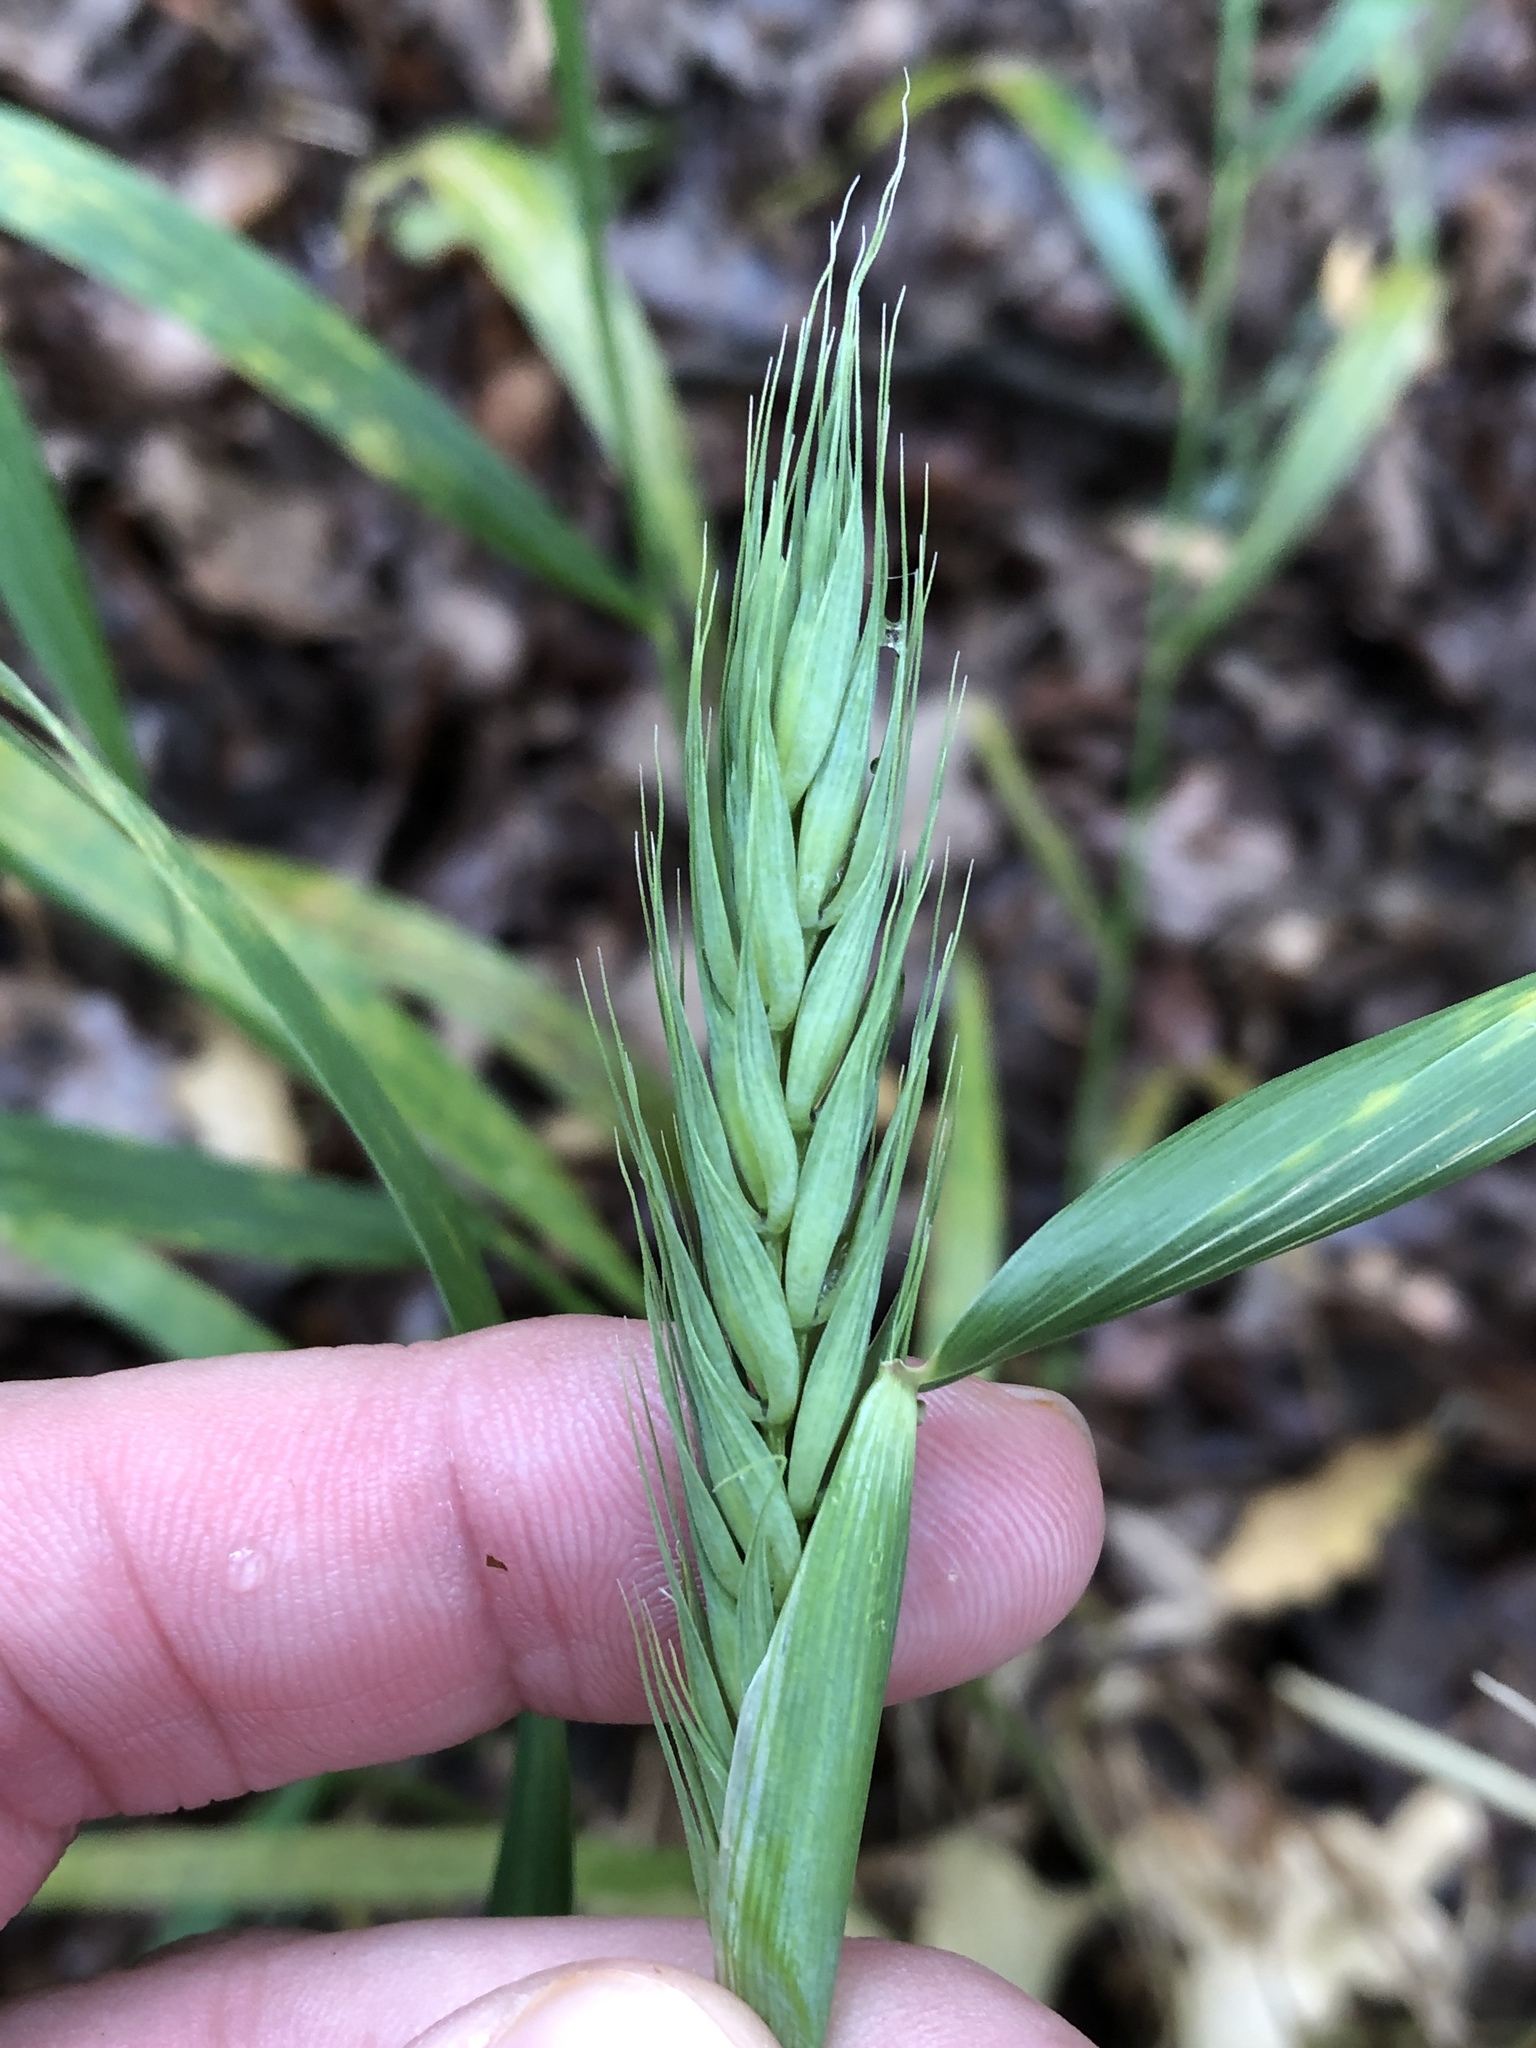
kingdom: Plantae
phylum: Tracheophyta
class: Liliopsida
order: Poales
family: Poaceae
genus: Elymus
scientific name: Elymus virginicus
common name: Common eastern wildrye
